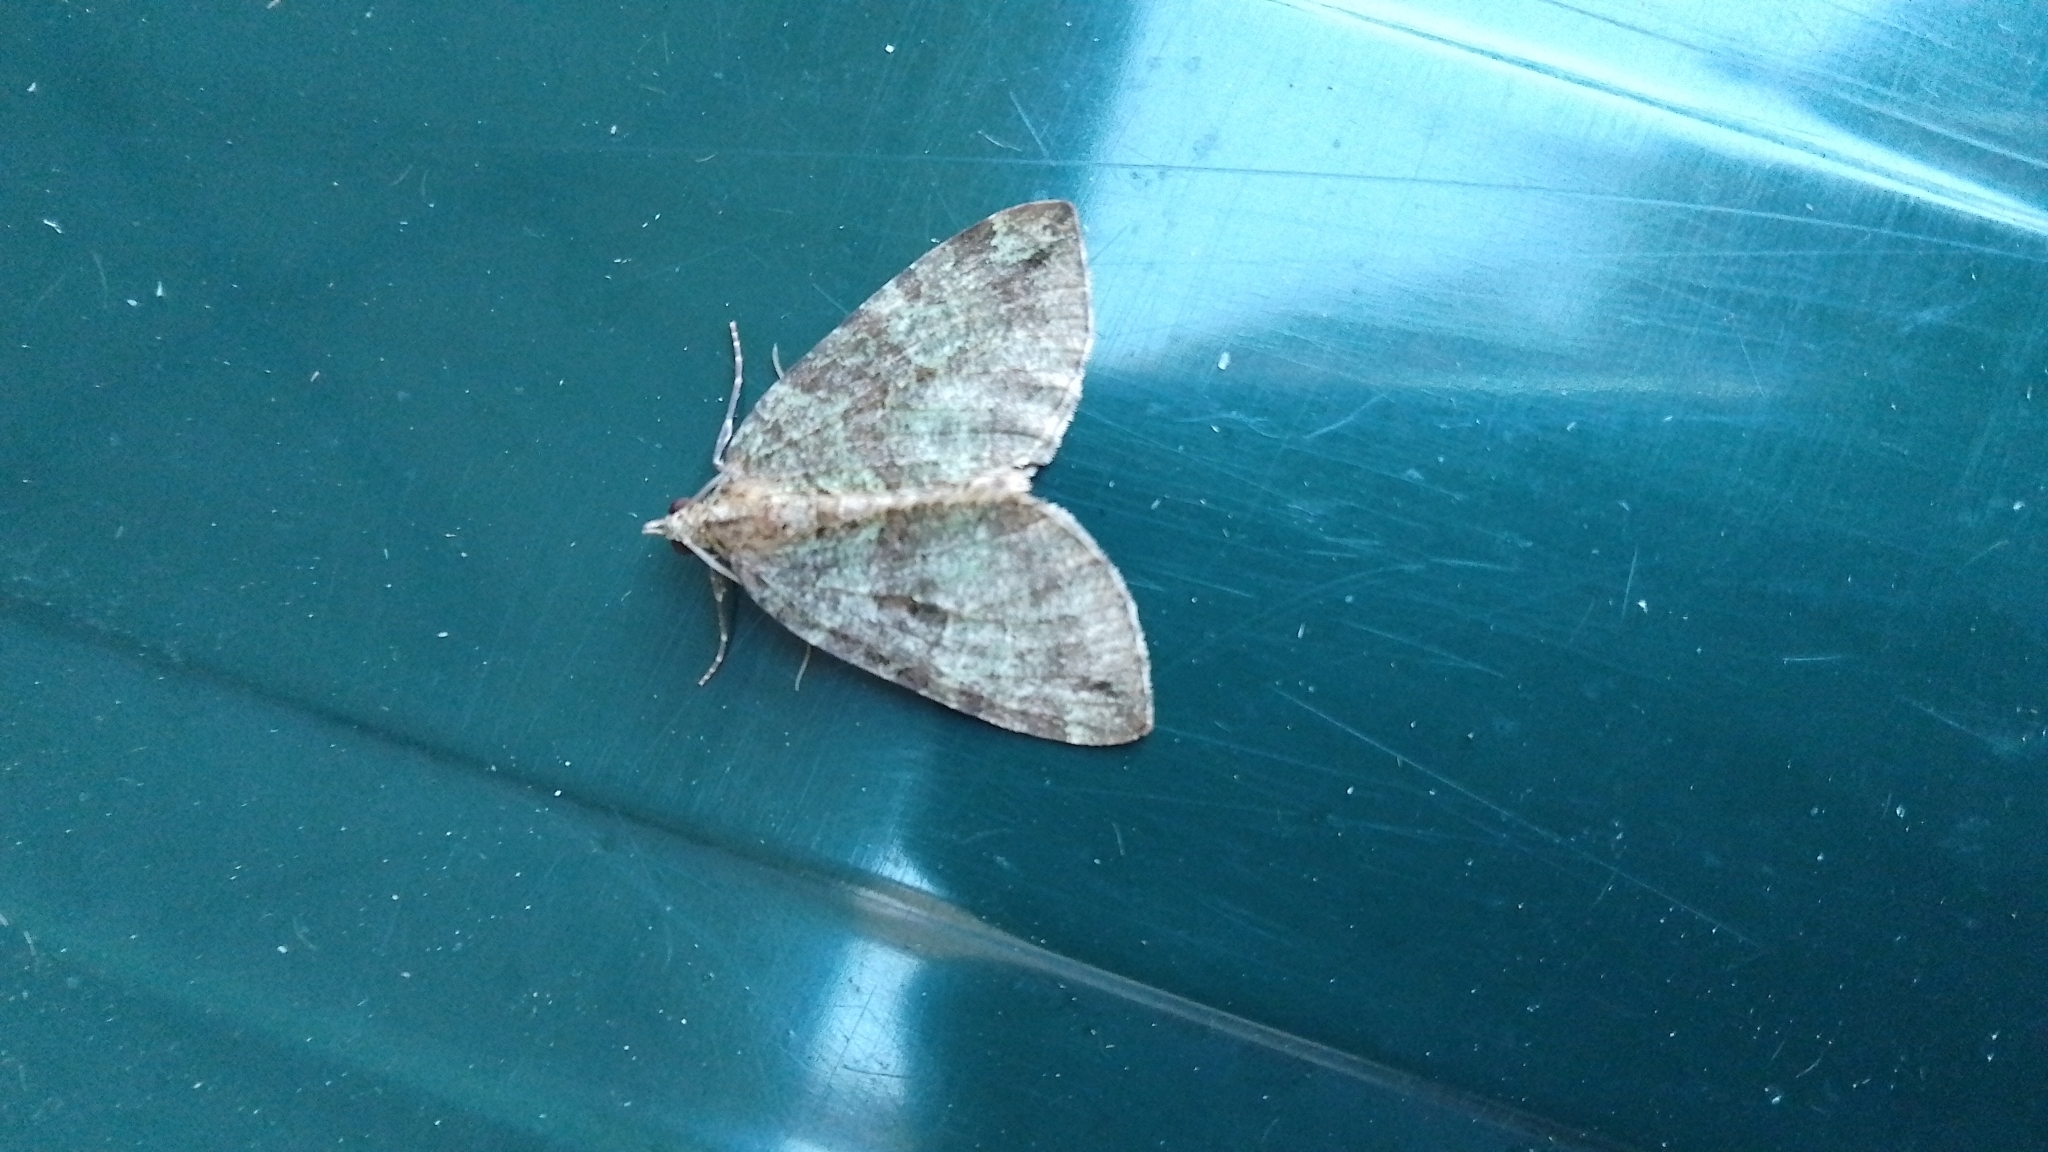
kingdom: Animalia
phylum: Arthropoda
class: Insecta
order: Lepidoptera
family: Geometridae
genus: Hydriomena
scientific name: Hydriomena furcata
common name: July highflyer
